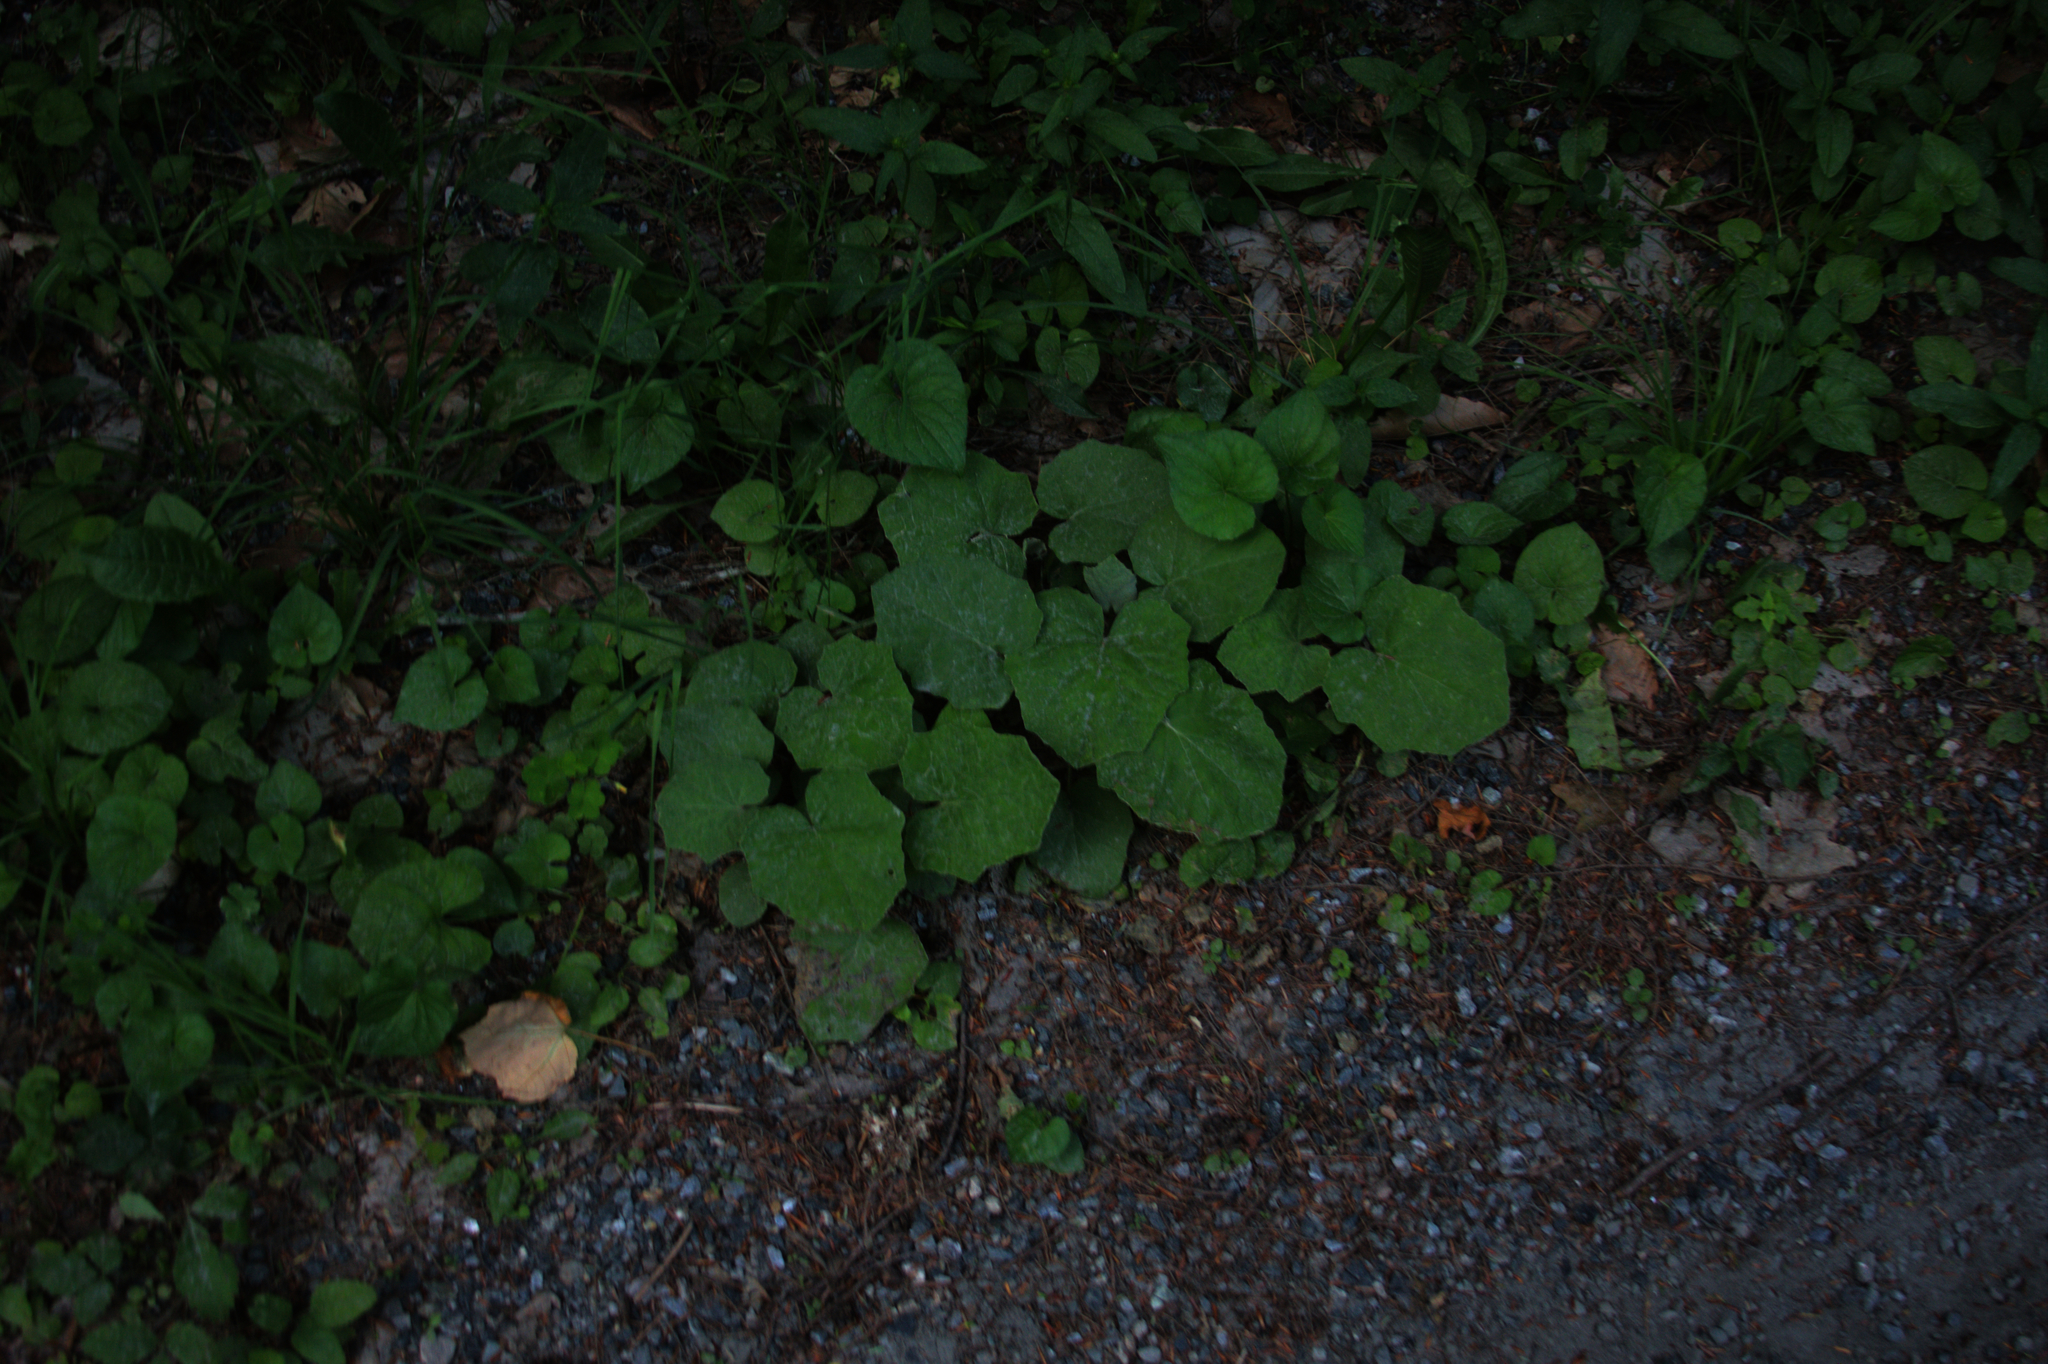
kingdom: Plantae
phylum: Tracheophyta
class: Magnoliopsida
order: Asterales
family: Asteraceae
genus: Tussilago
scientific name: Tussilago farfara
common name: Coltsfoot
